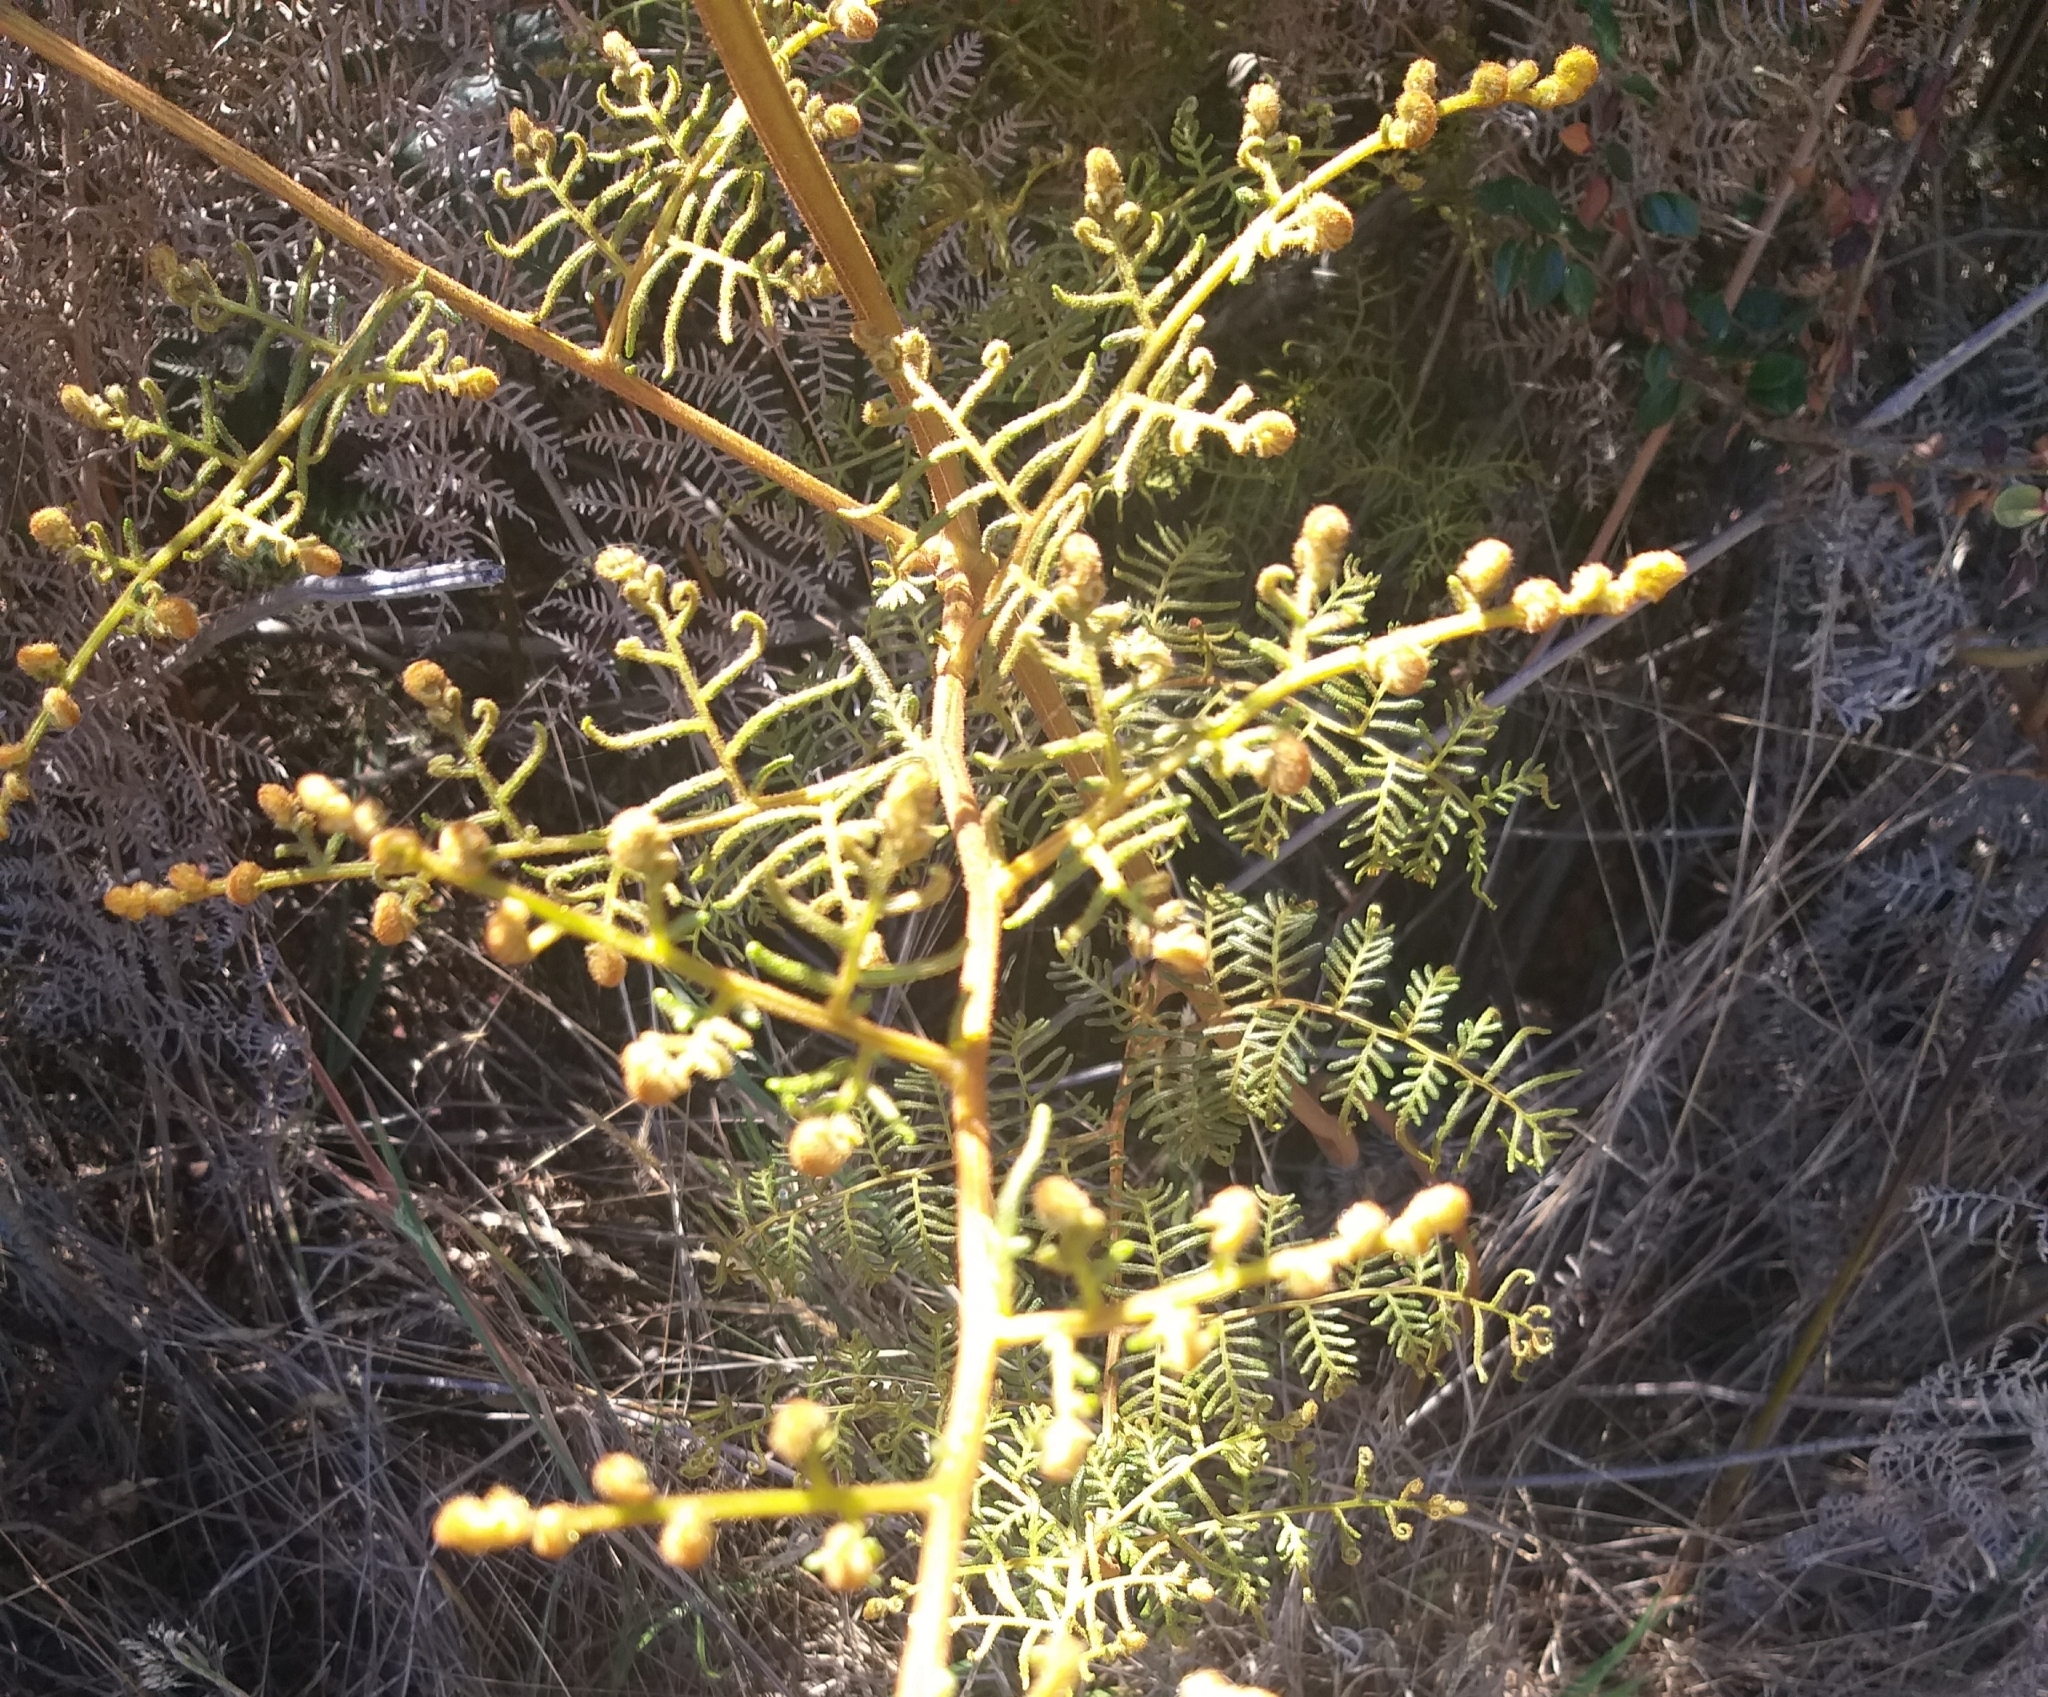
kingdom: Plantae
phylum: Tracheophyta
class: Polypodiopsida
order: Polypodiales
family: Dennstaedtiaceae
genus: Pteridium
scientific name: Pteridium esculentum
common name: Bracken fern
